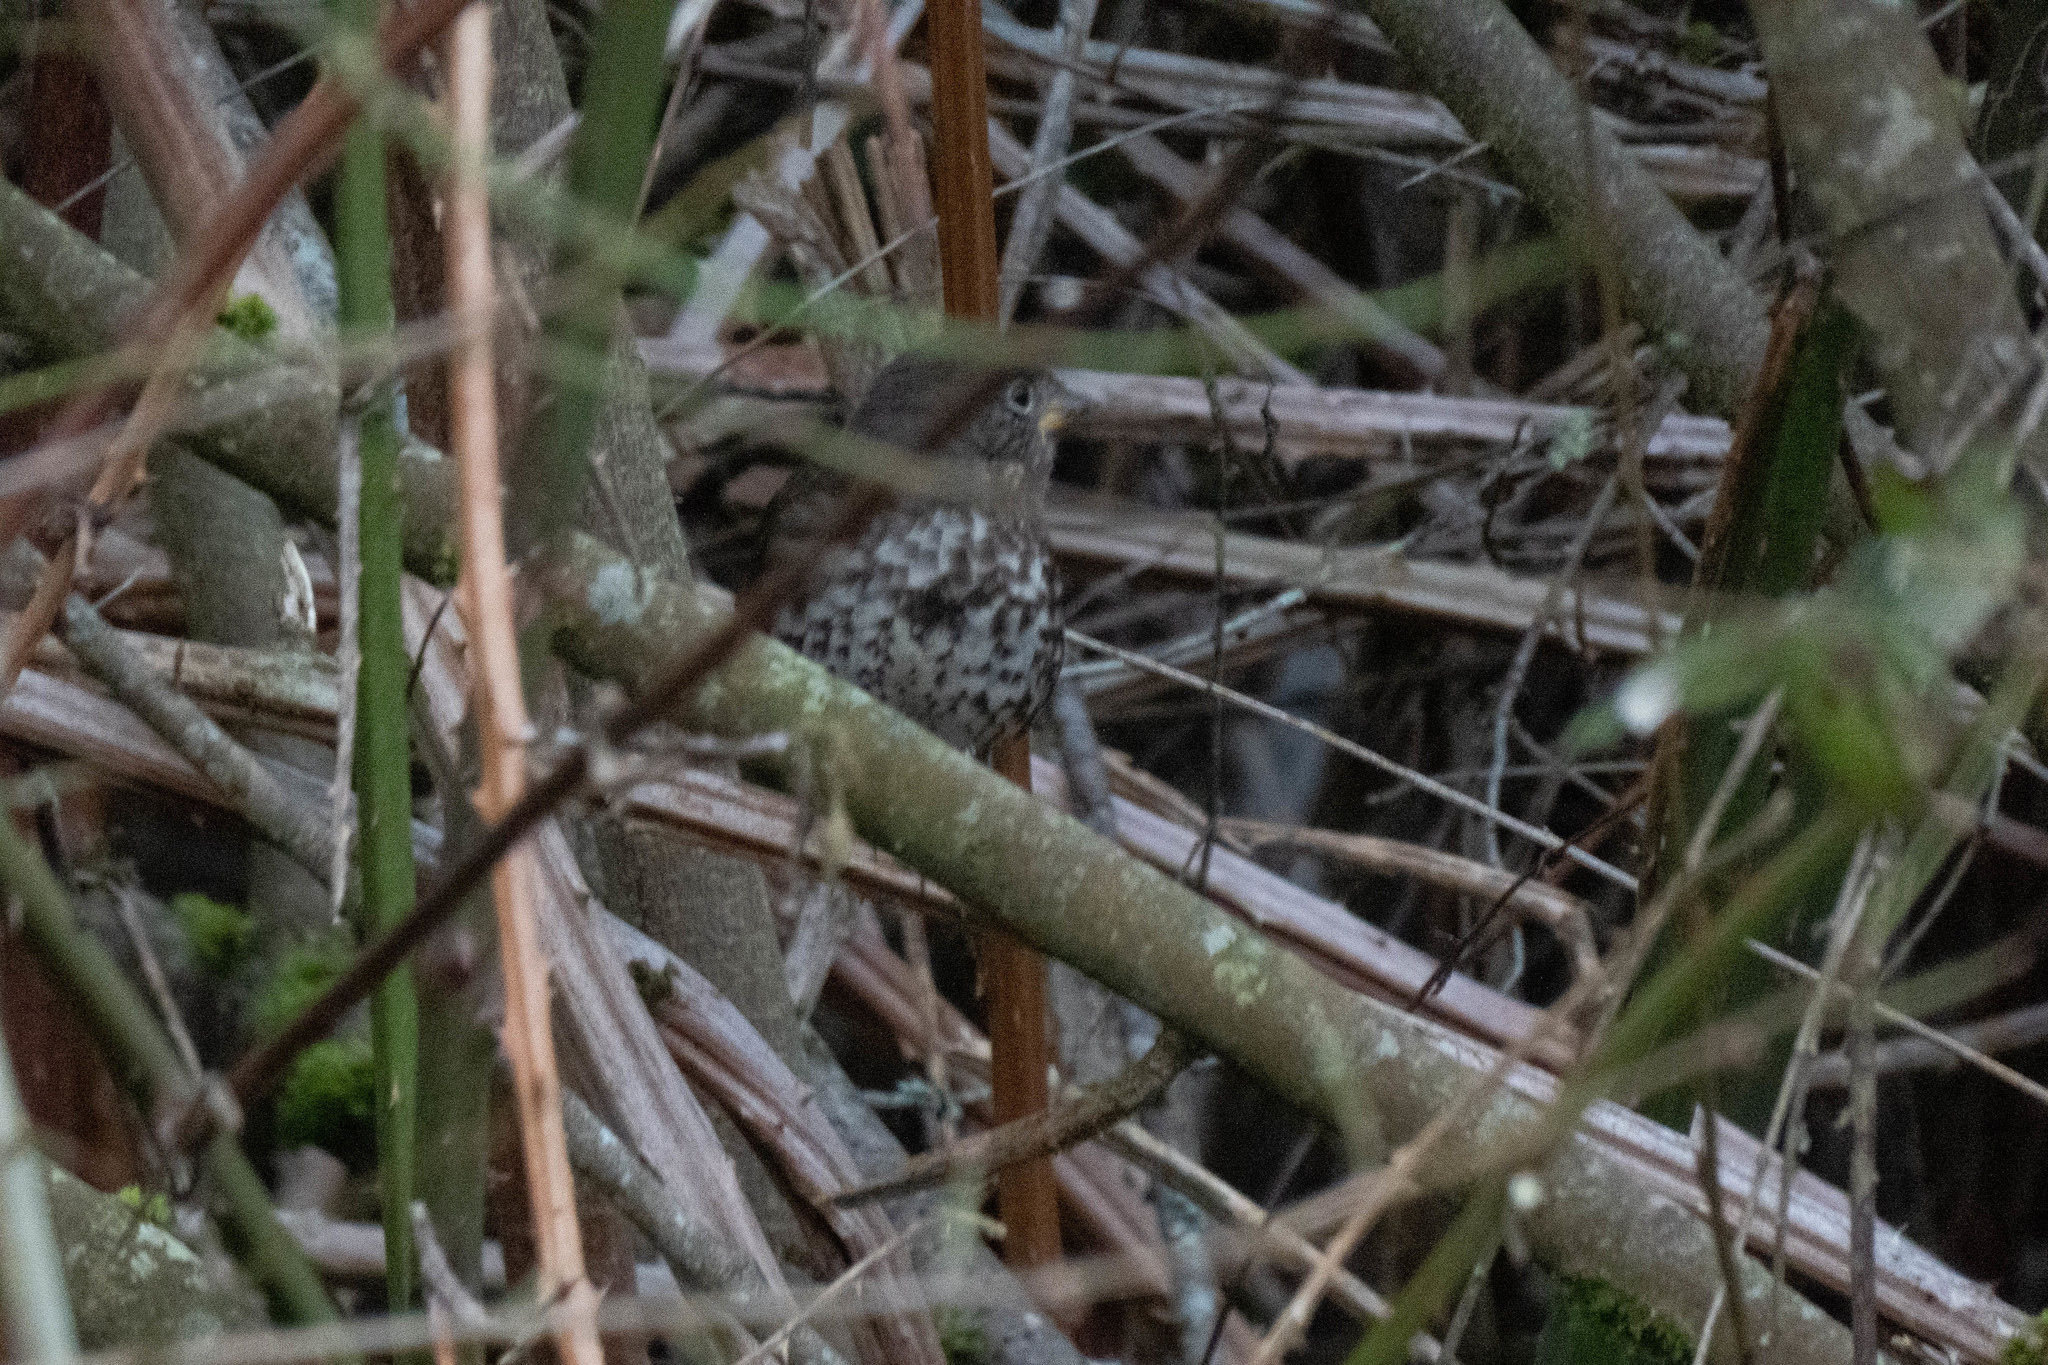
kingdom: Animalia
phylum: Chordata
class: Aves
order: Passeriformes
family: Passerellidae
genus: Passerella
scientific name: Passerella iliaca
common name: Fox sparrow
